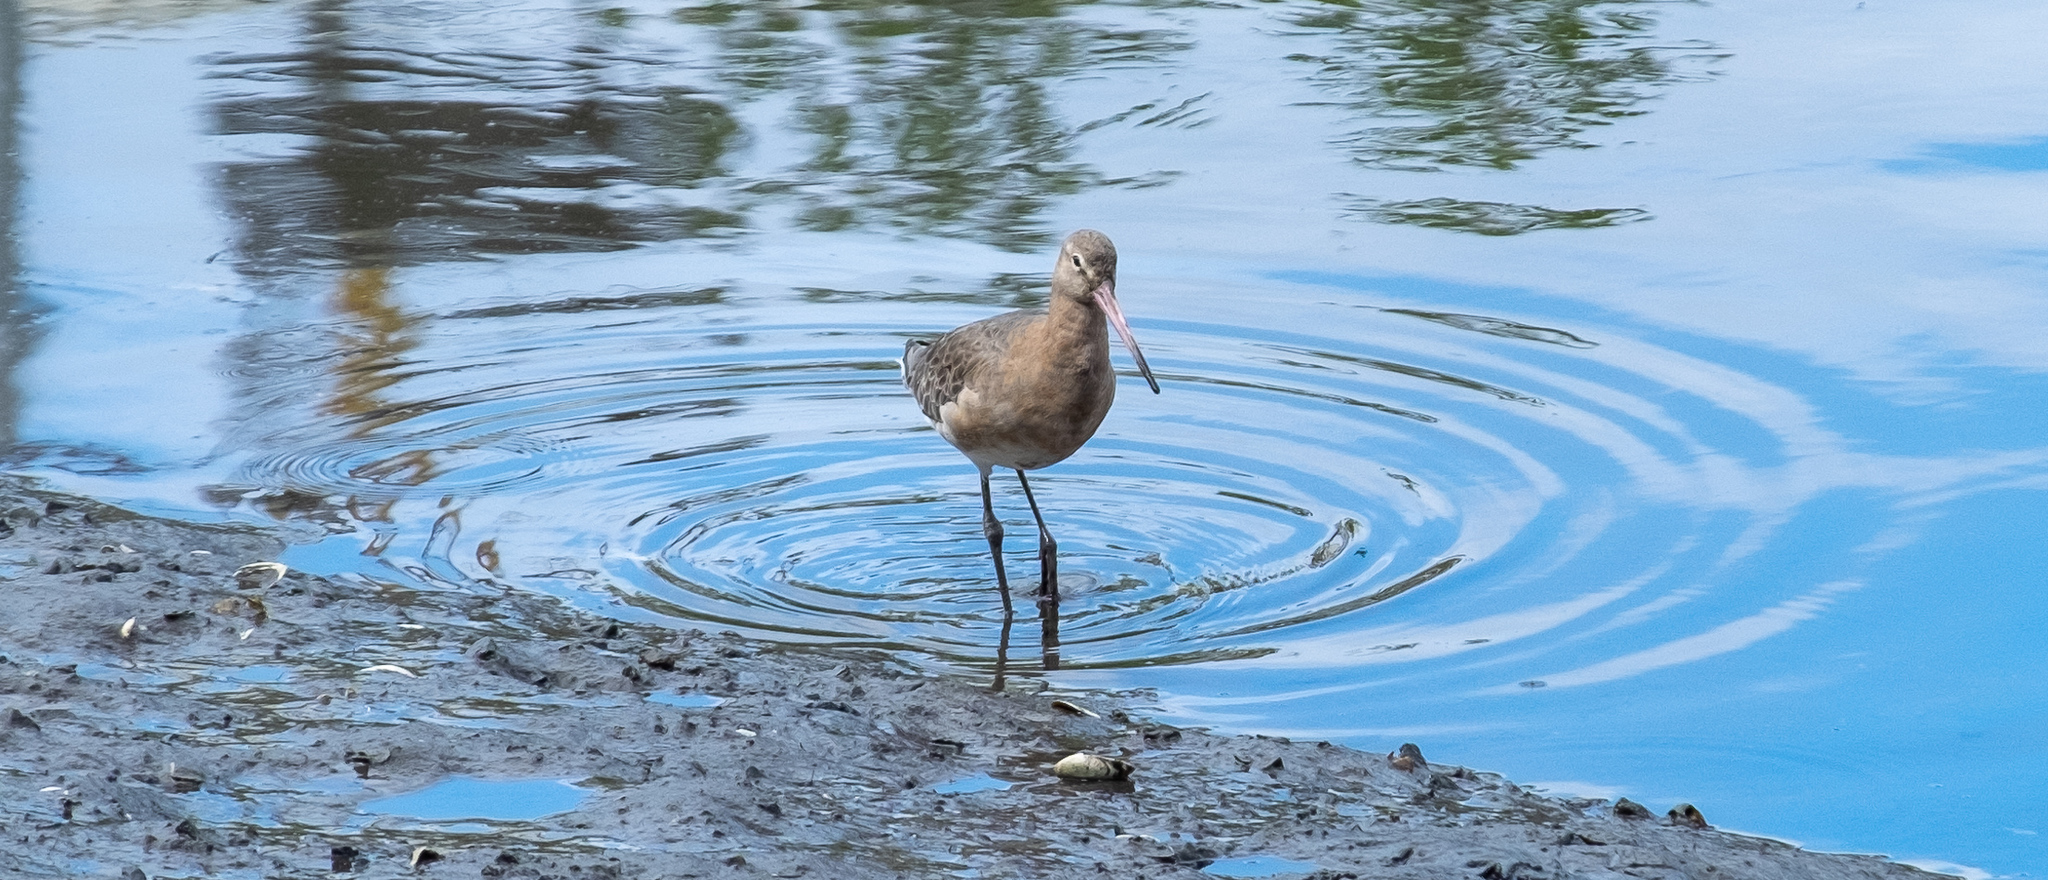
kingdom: Animalia
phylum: Chordata
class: Aves
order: Charadriiformes
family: Scolopacidae
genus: Limosa
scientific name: Limosa limosa
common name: Black-tailed godwit
